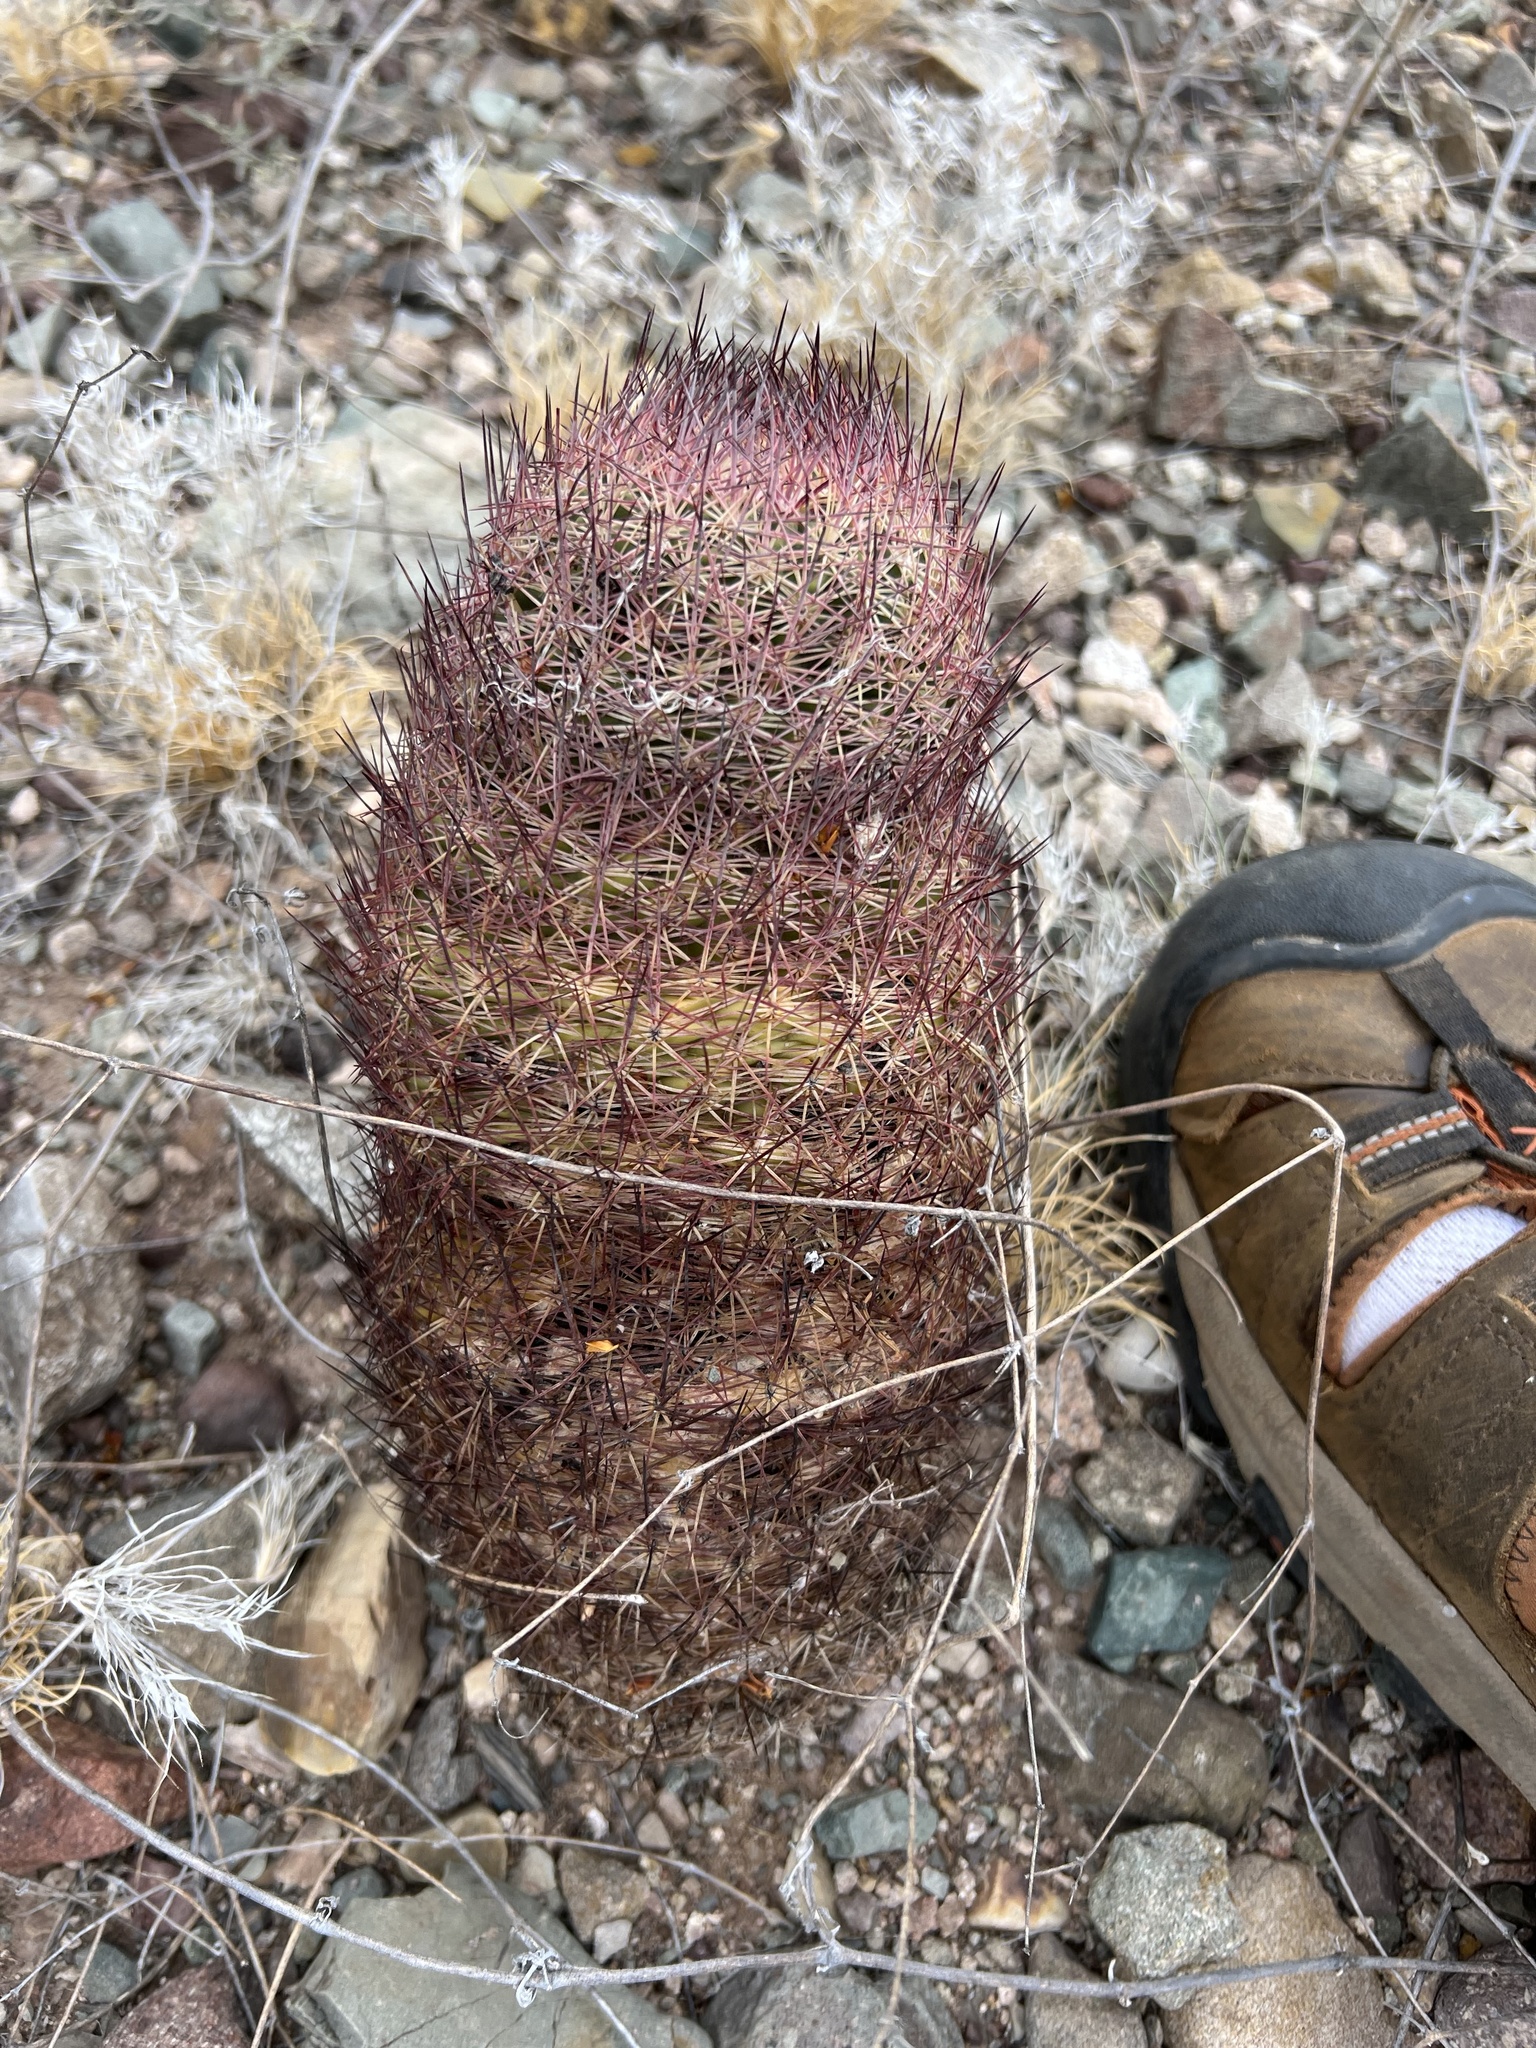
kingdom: Plantae
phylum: Tracheophyta
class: Magnoliopsida
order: Caryophyllales
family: Cactaceae
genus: Sclerocactus
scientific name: Sclerocactus johnsonii
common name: Eight-spine fishhook cactus
